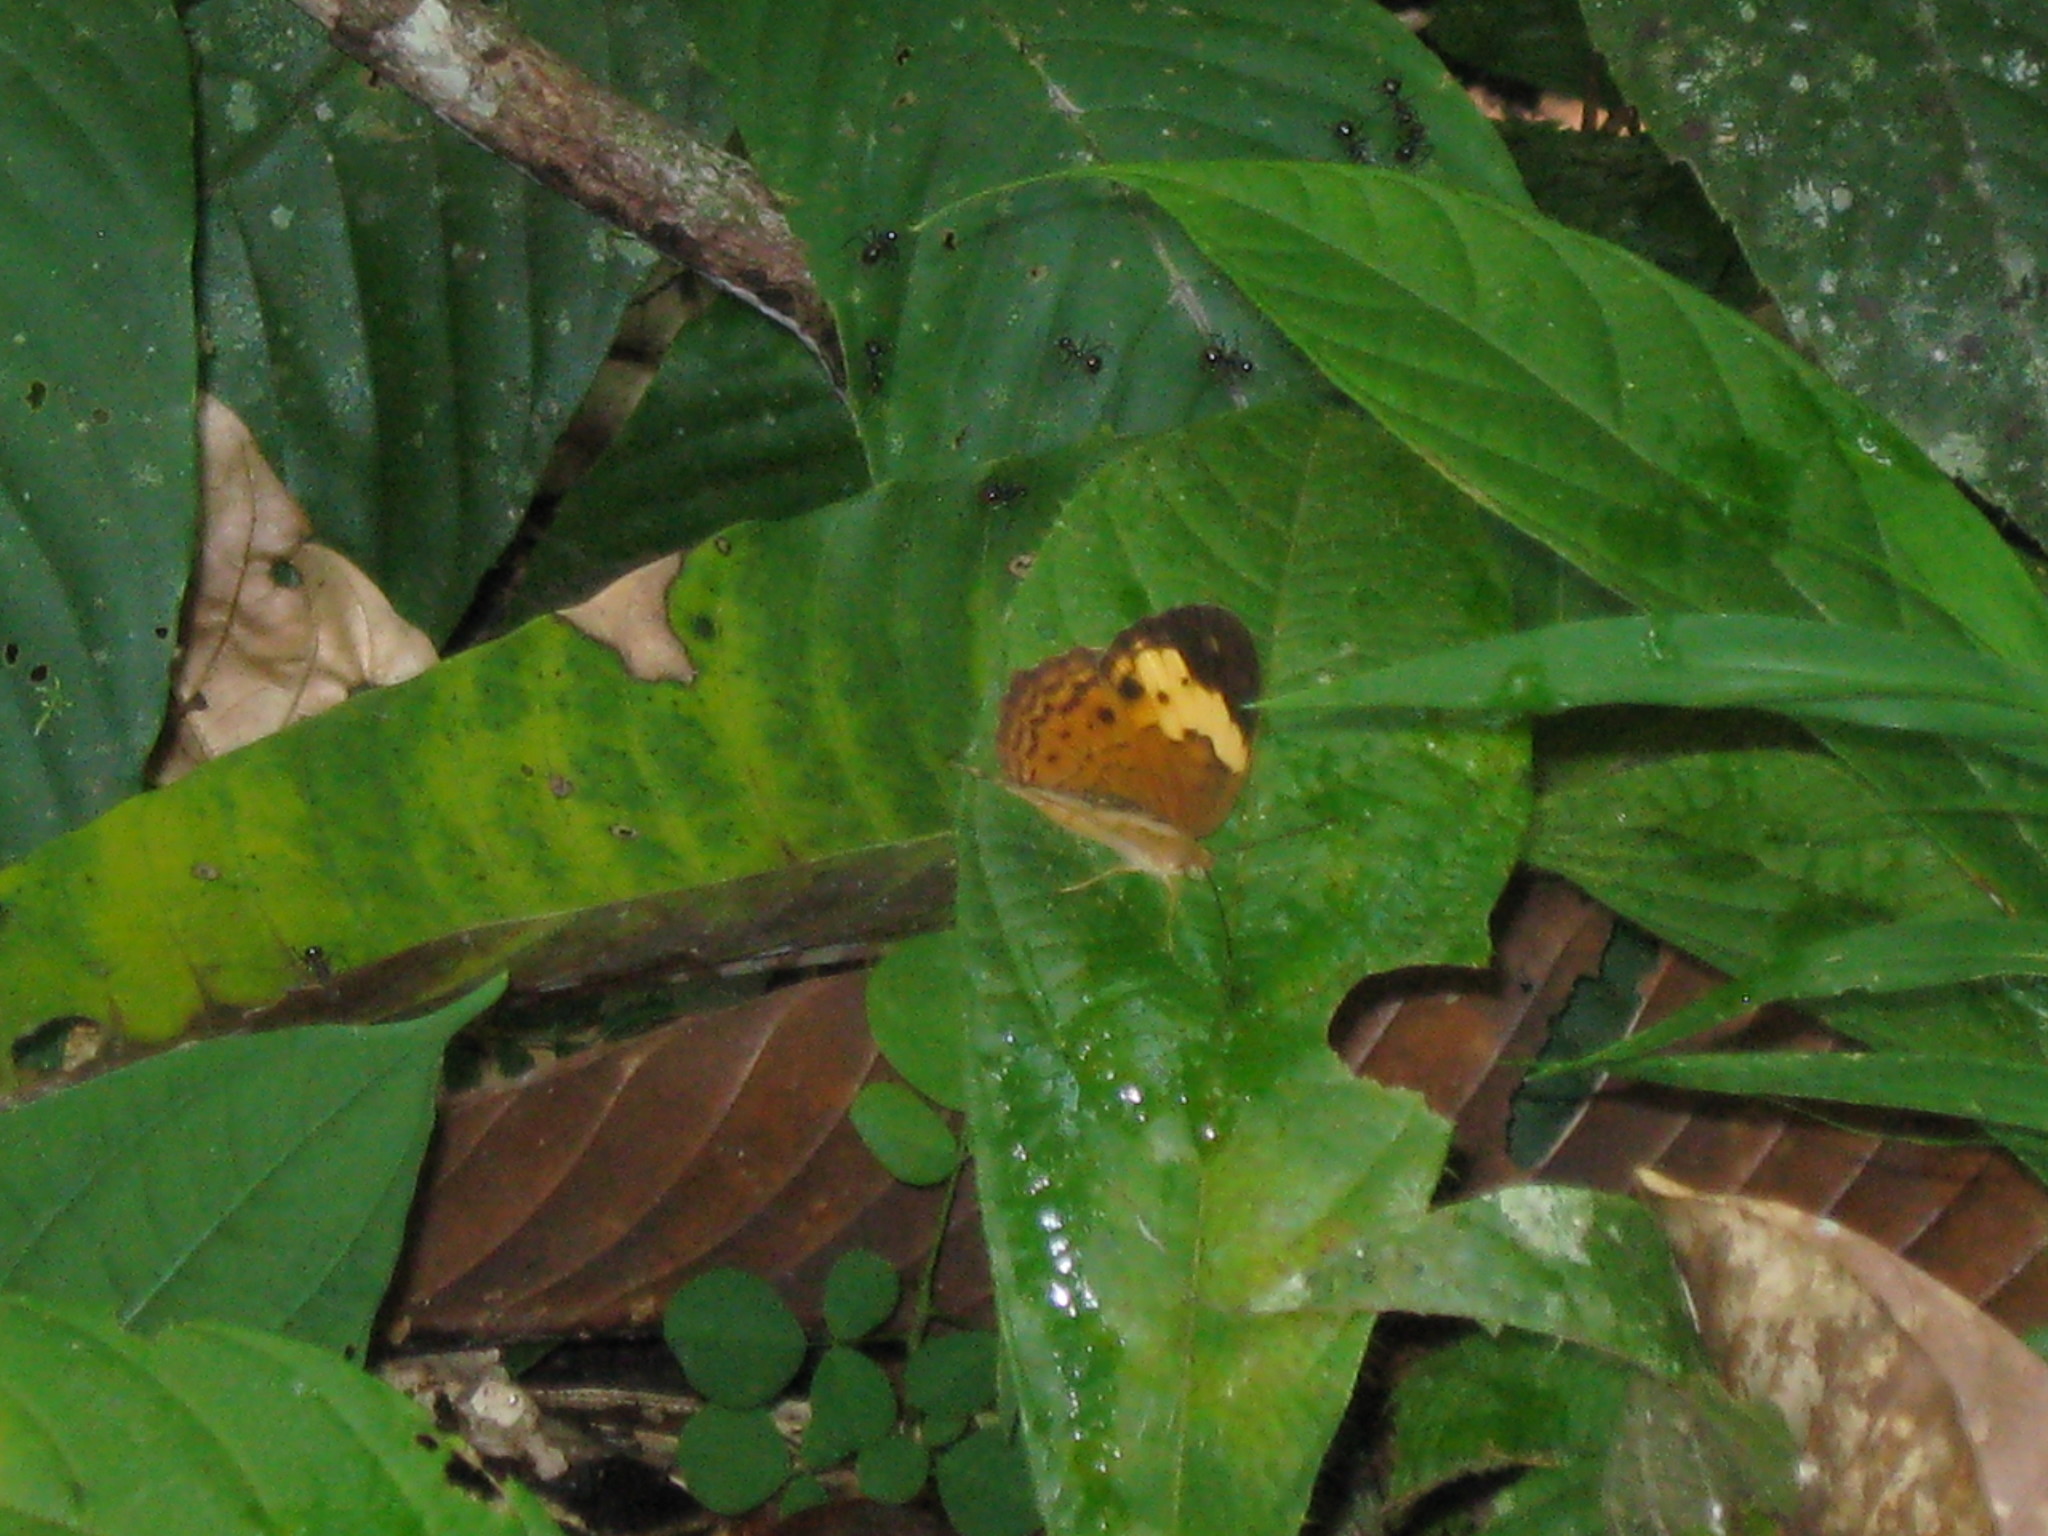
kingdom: Animalia
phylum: Arthropoda
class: Insecta
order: Lepidoptera
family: Nymphalidae
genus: Cupha
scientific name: Cupha erymanthis
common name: Rustic
